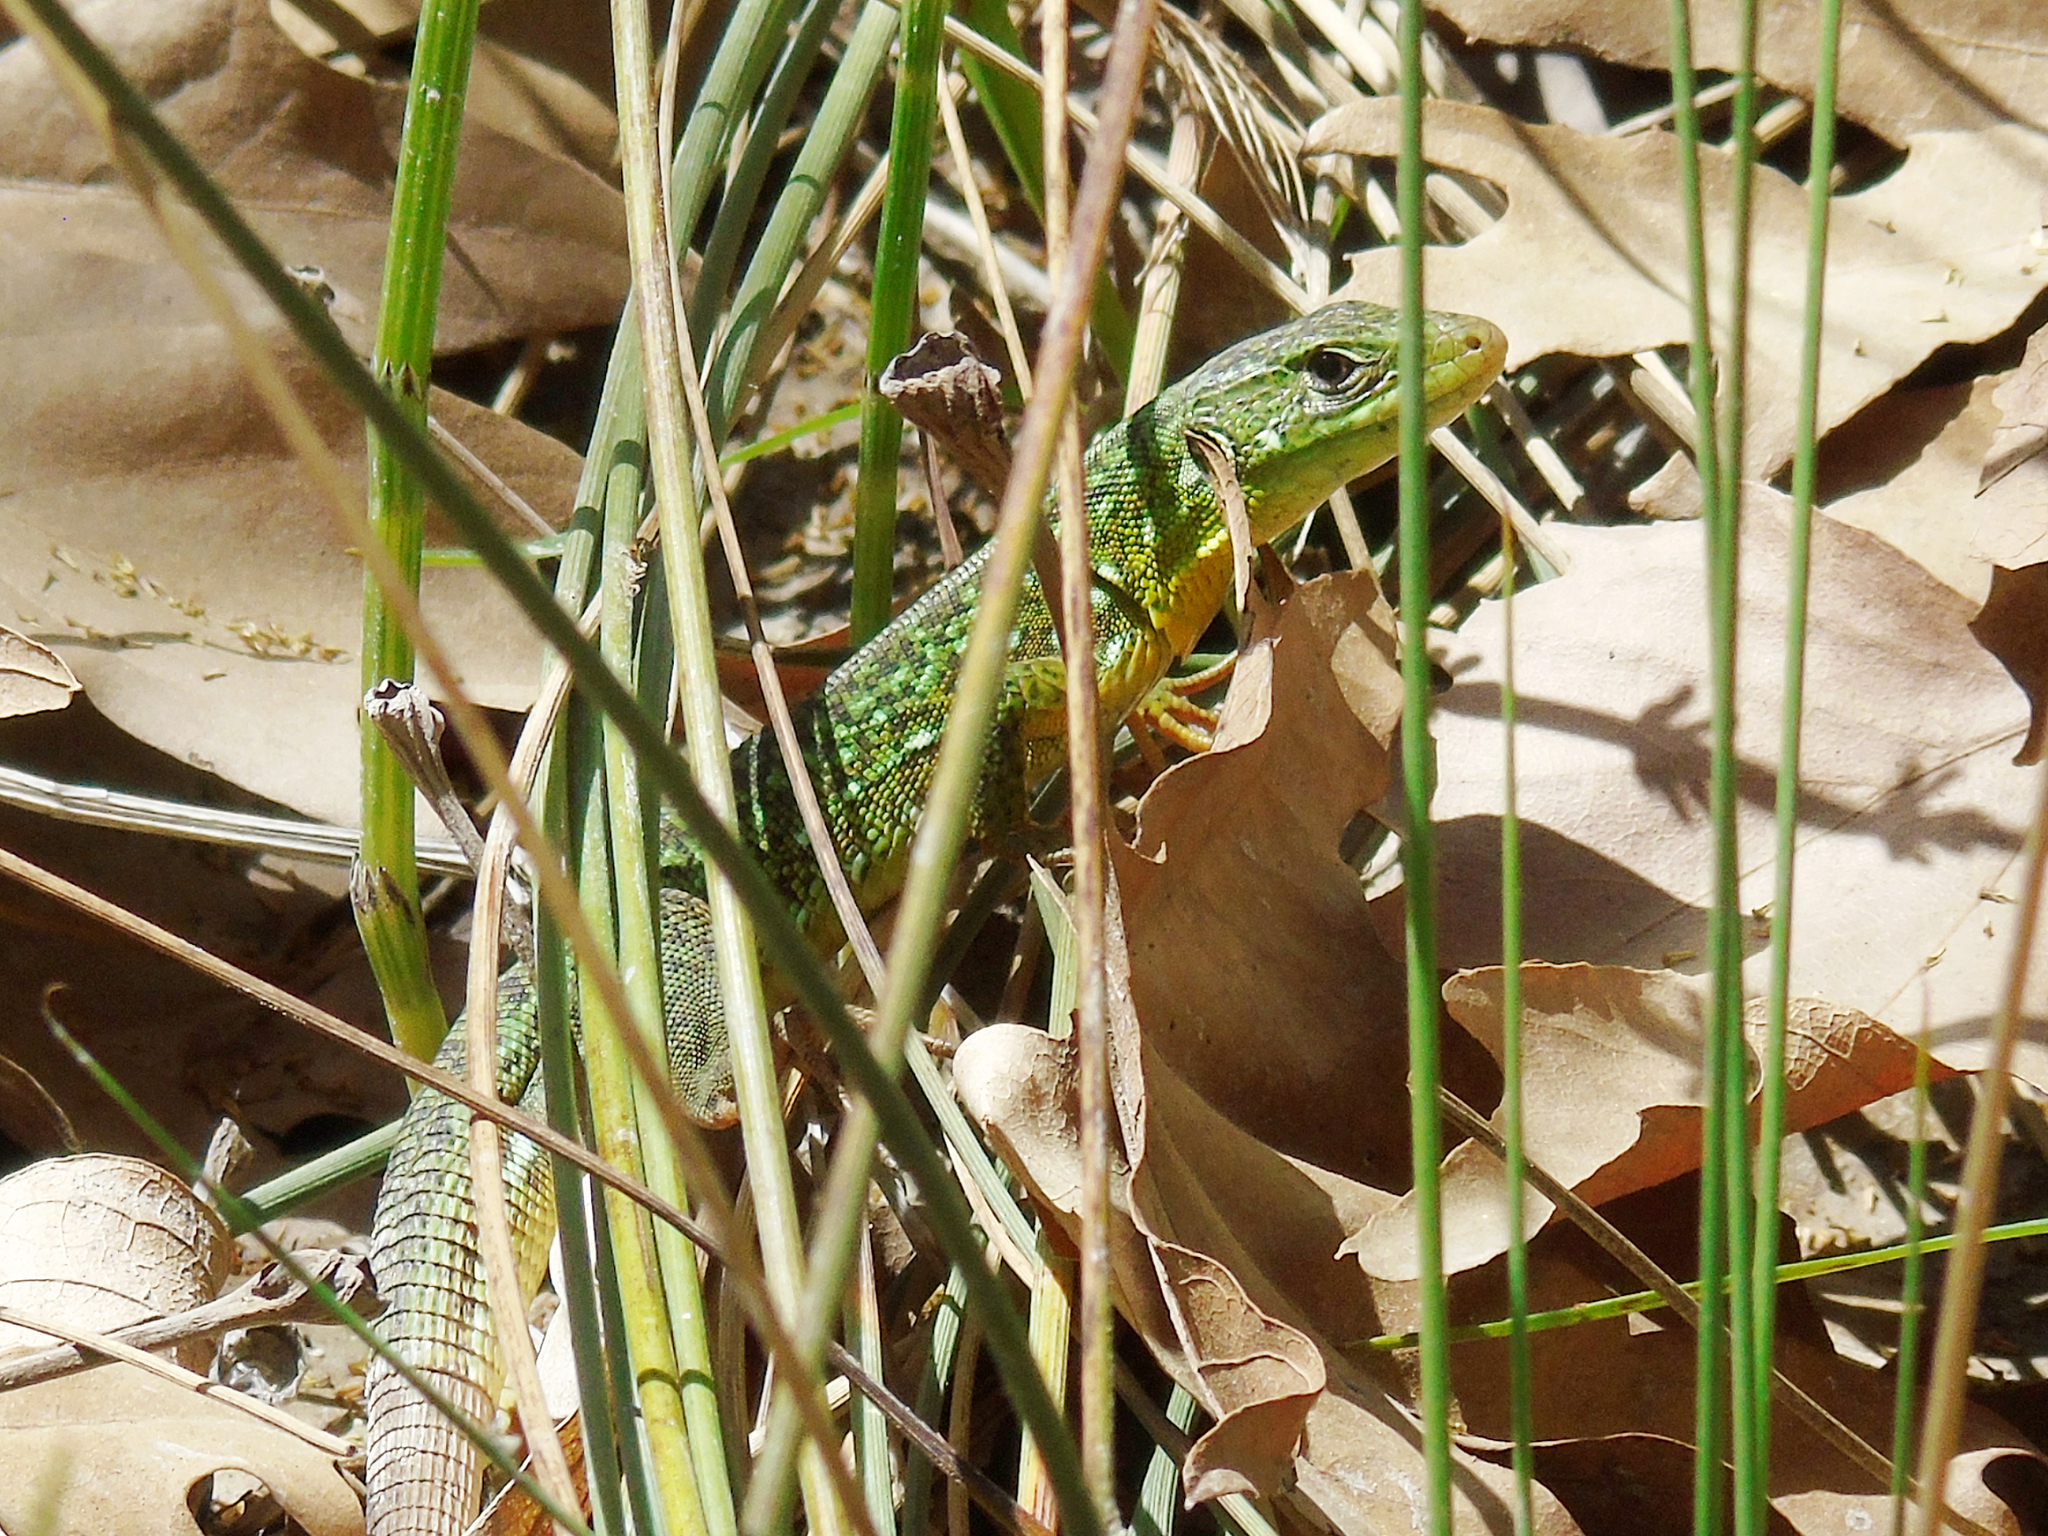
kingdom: Animalia
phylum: Chordata
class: Squamata
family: Lacertidae
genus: Lacerta
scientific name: Lacerta trilineata
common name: Balkan green lizard
